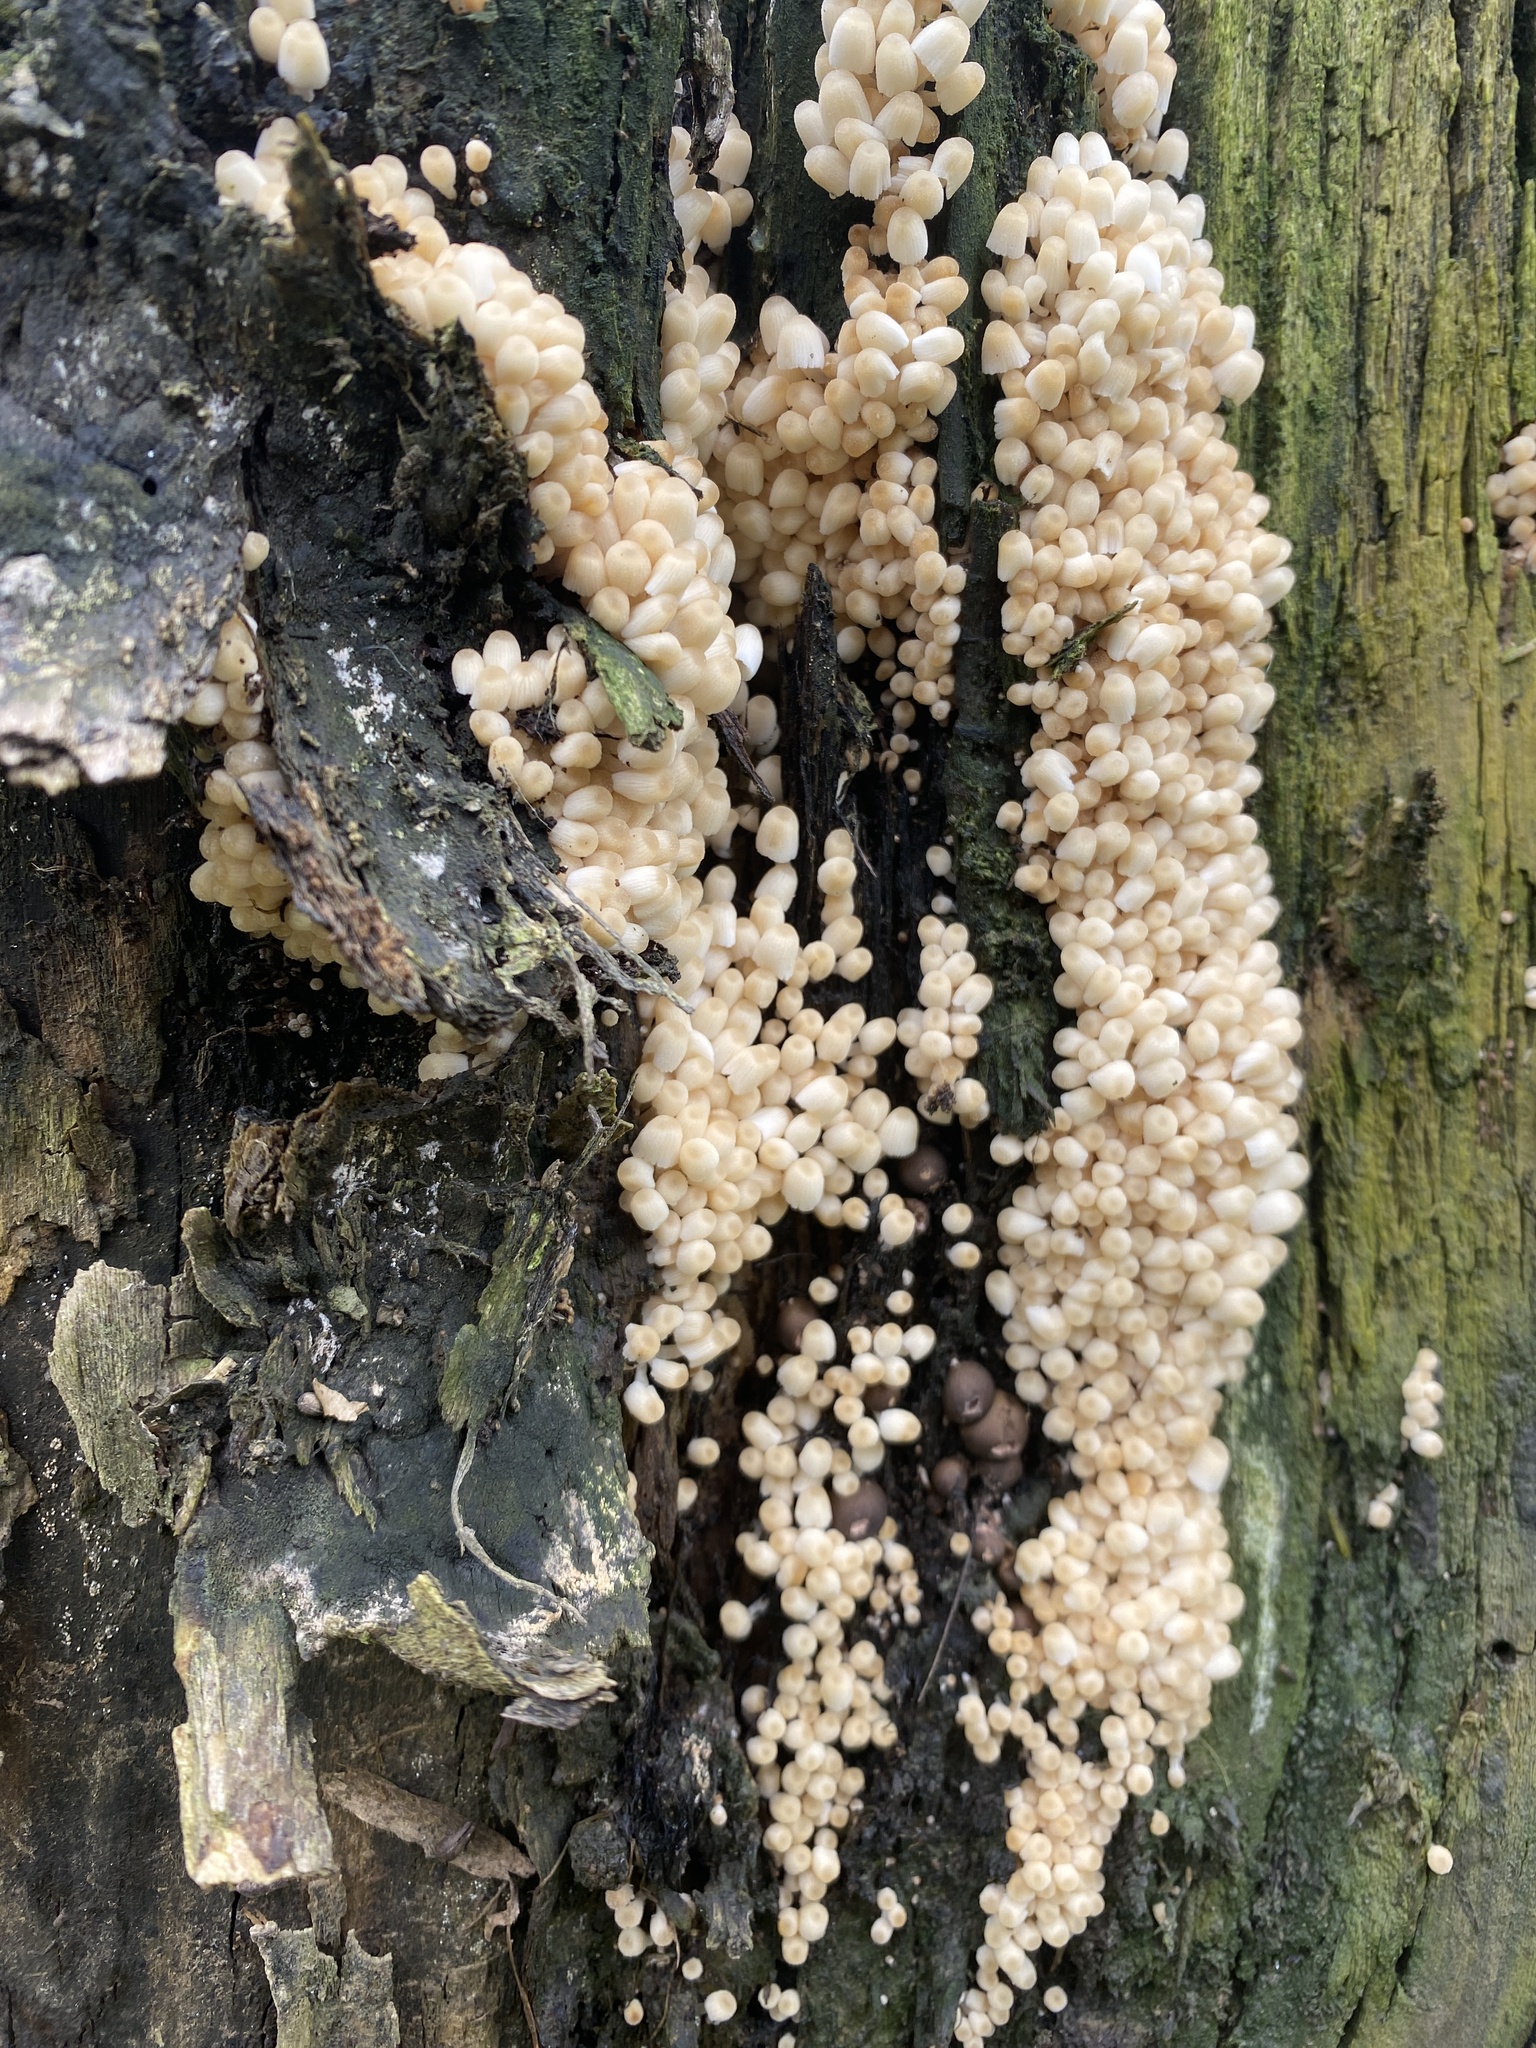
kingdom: Fungi
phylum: Basidiomycota
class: Agaricomycetes
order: Agaricales
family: Psathyrellaceae
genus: Coprinellus
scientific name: Coprinellus disseminatus
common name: Fairies' bonnets
